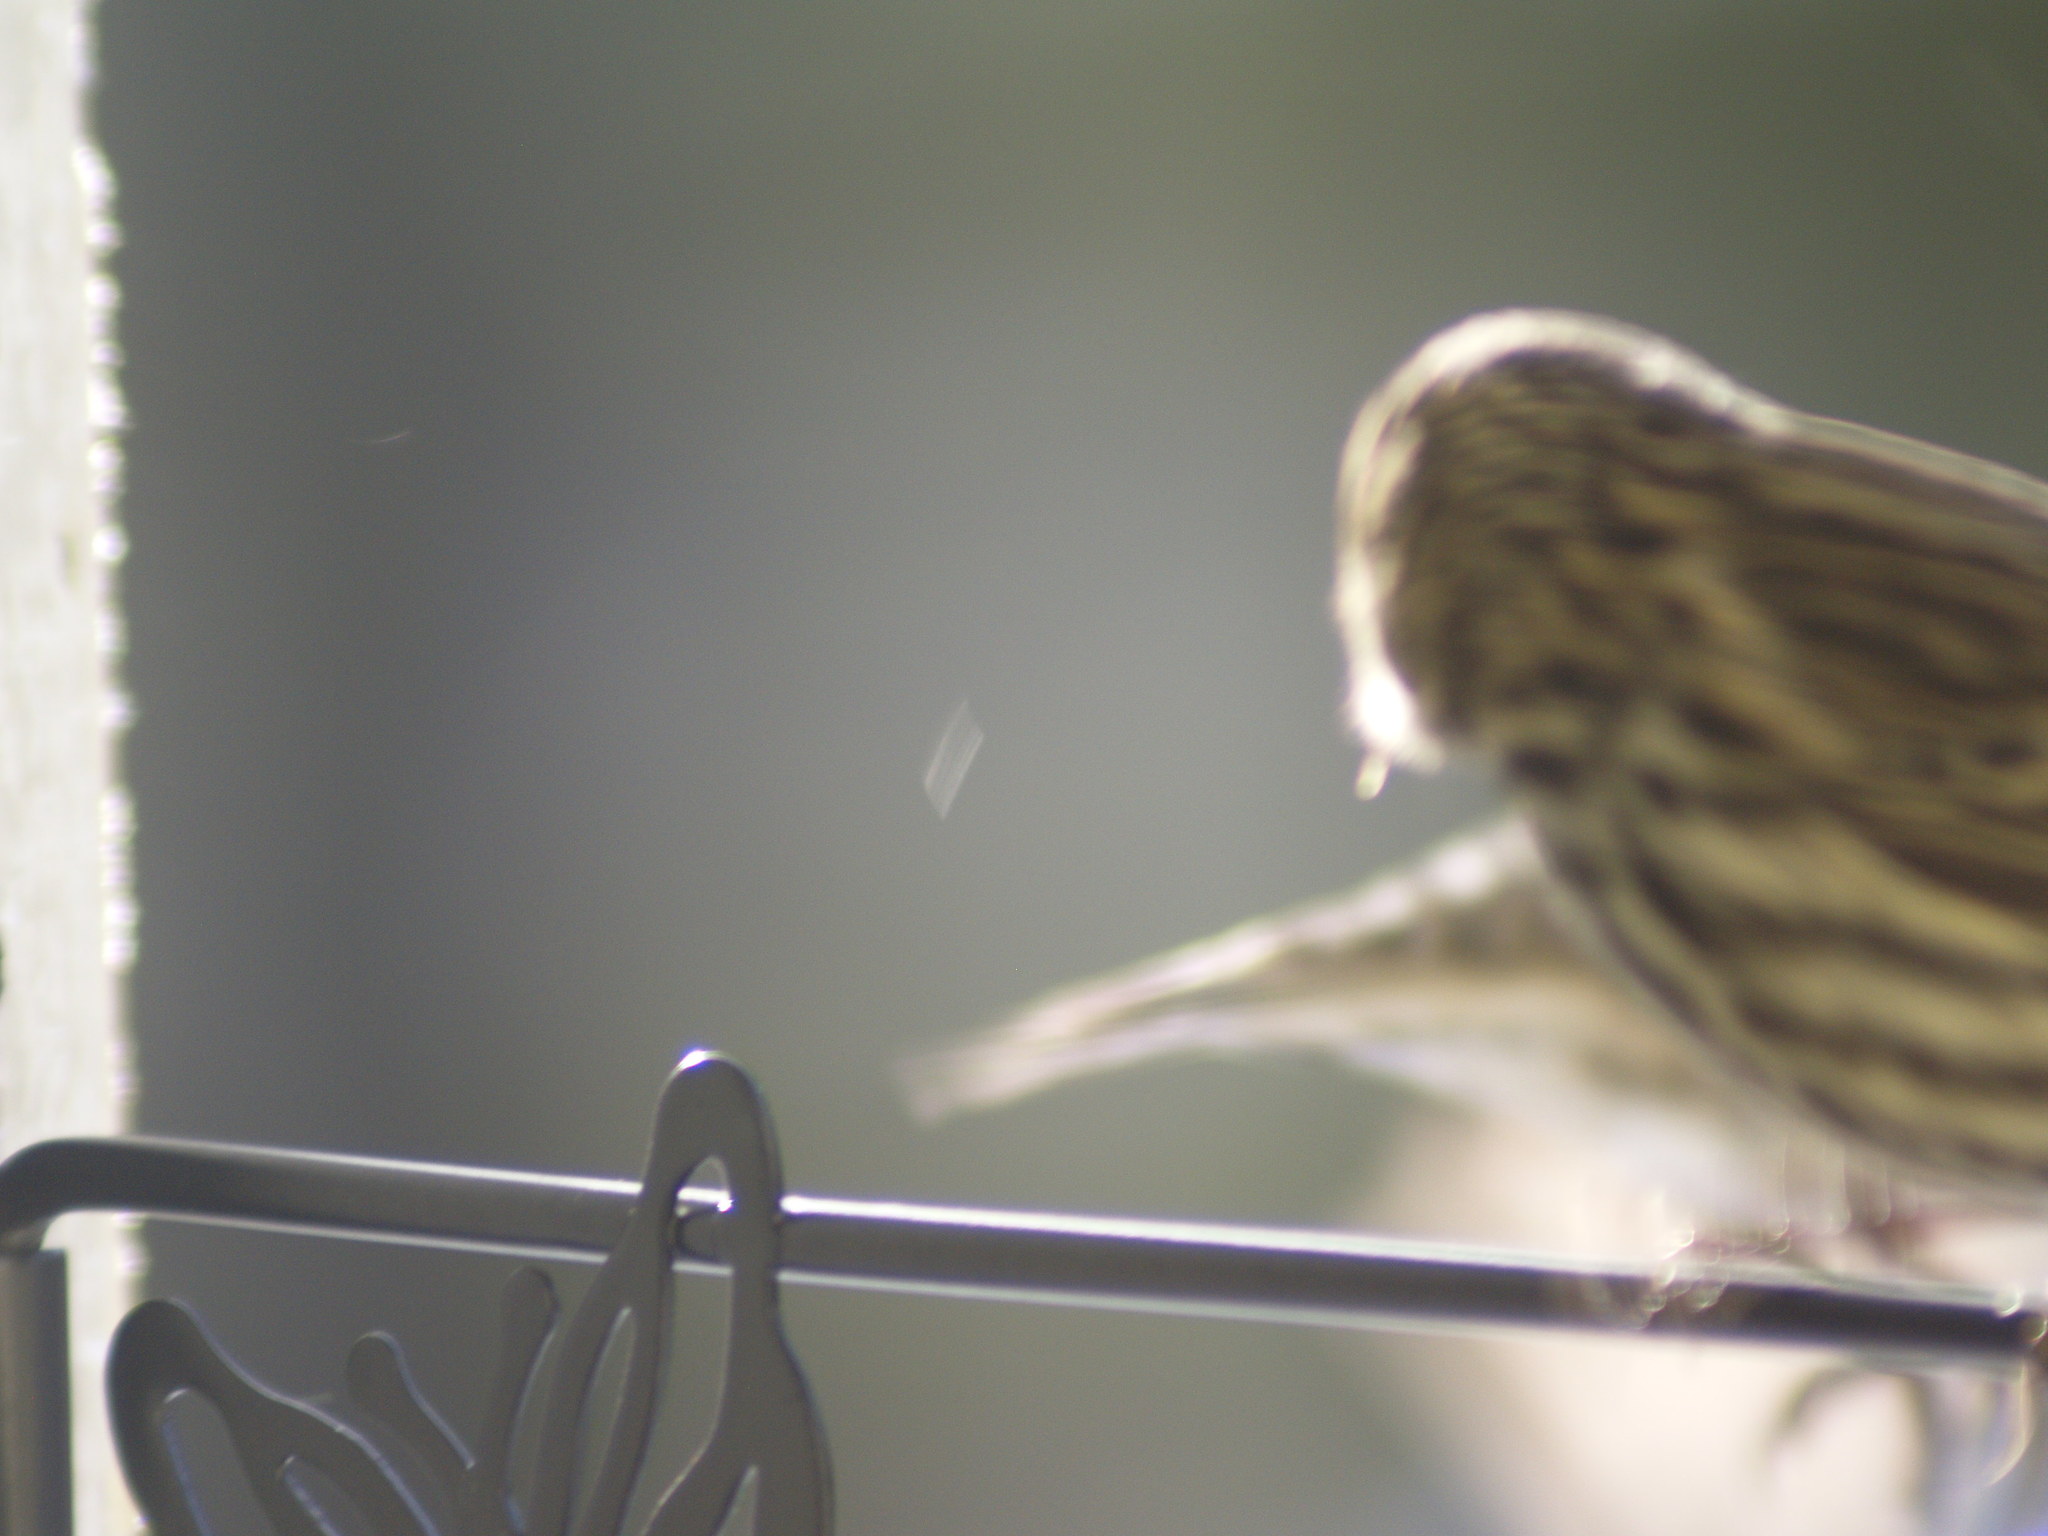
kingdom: Animalia
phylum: Chordata
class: Aves
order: Passeriformes
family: Fringillidae
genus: Spinus
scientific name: Spinus pinus
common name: Pine siskin
